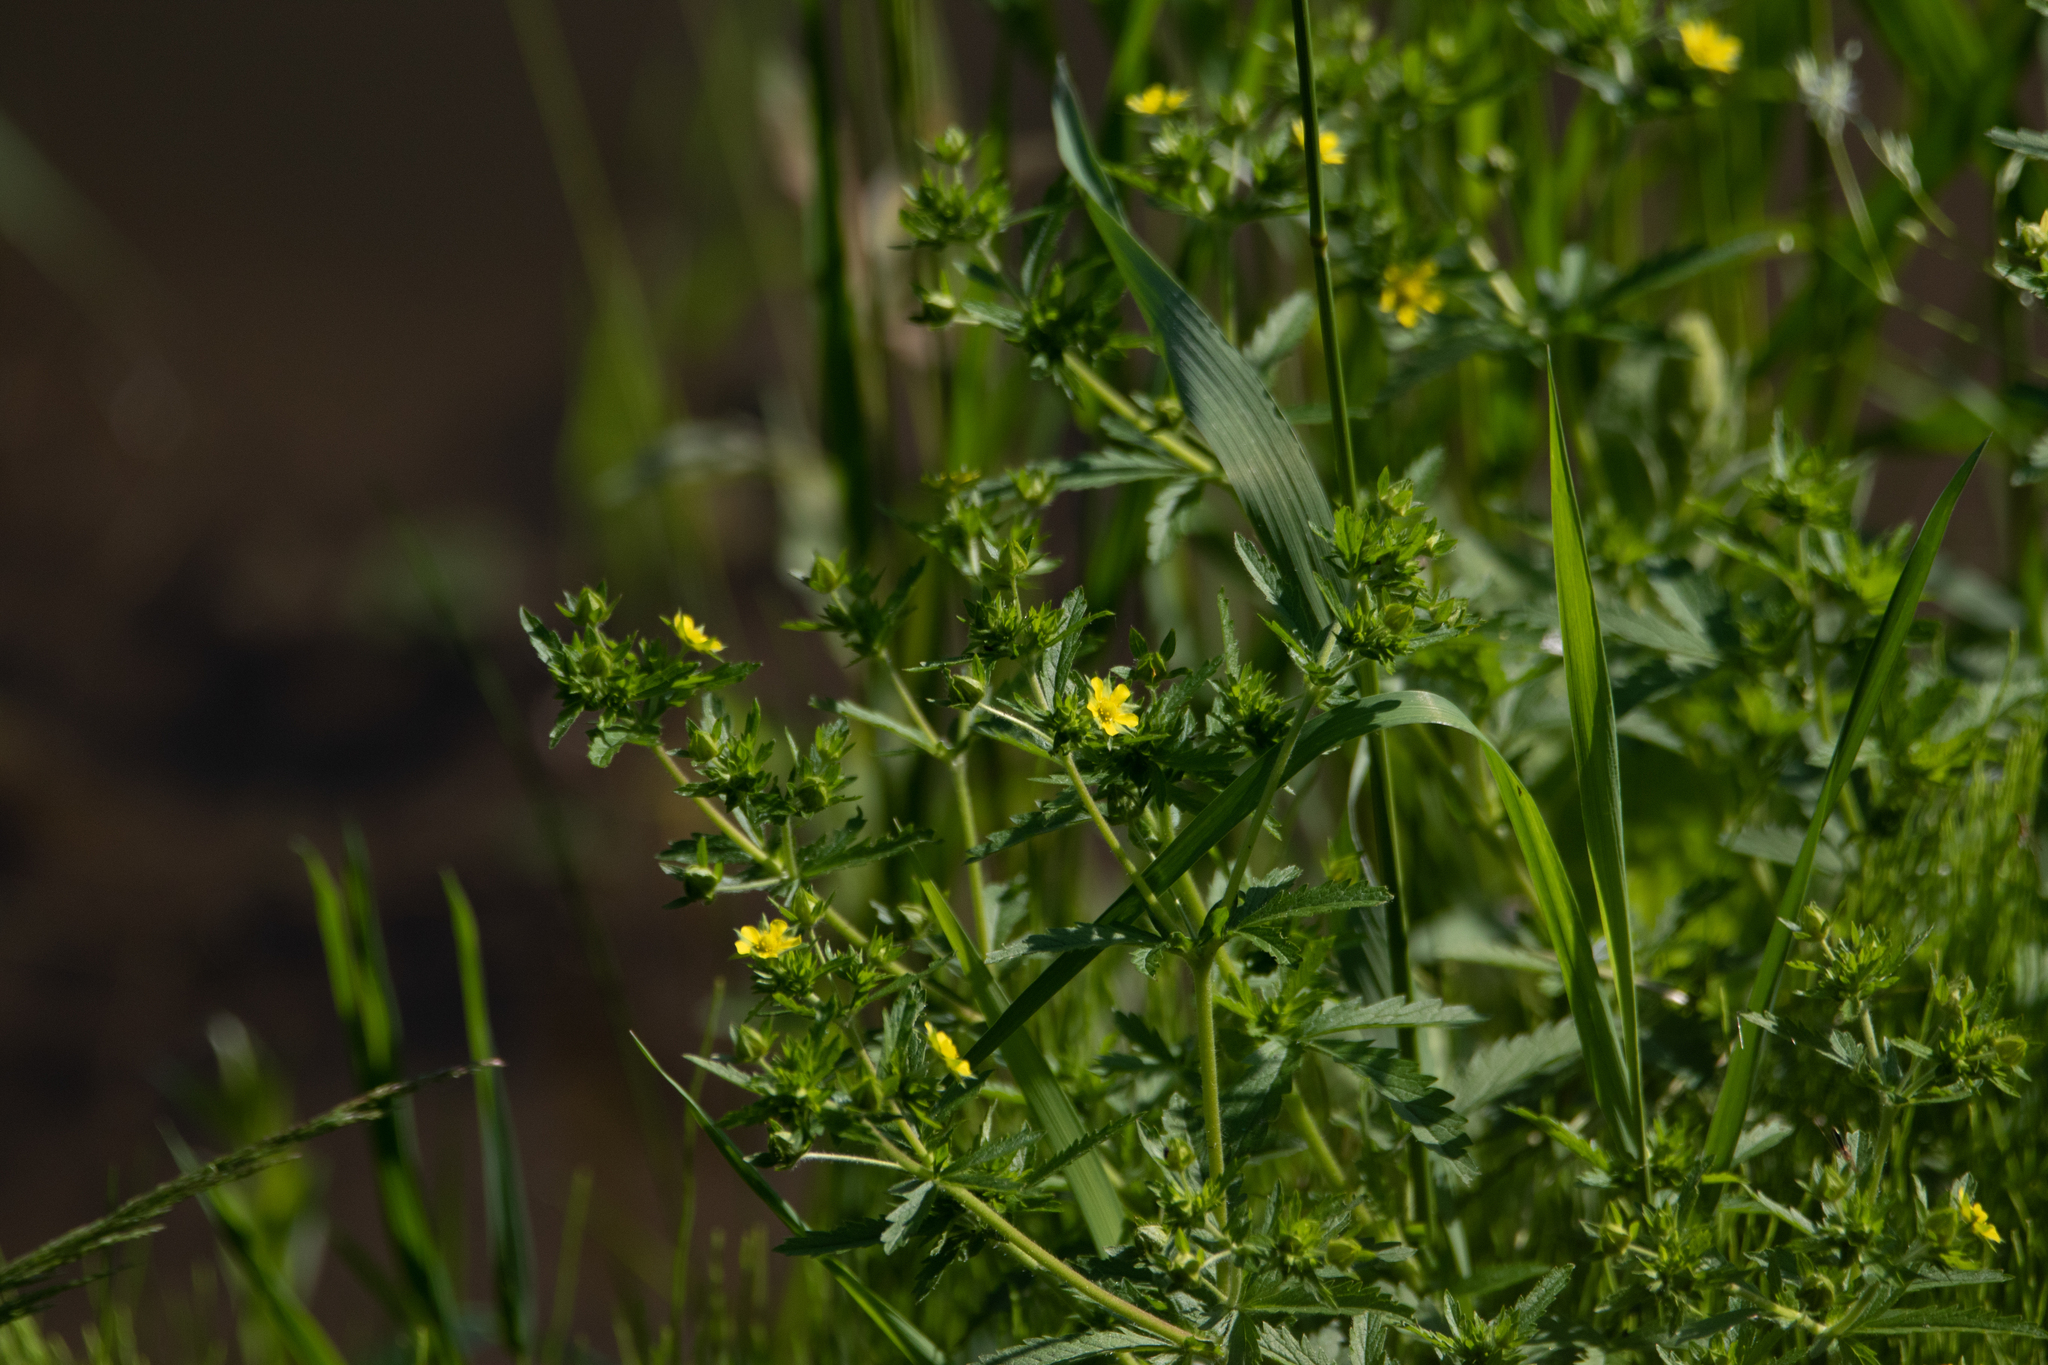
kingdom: Plantae
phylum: Tracheophyta
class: Magnoliopsida
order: Rosales
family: Rosaceae
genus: Potentilla
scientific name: Potentilla norvegica
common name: Ternate-leaved cinquefoil
